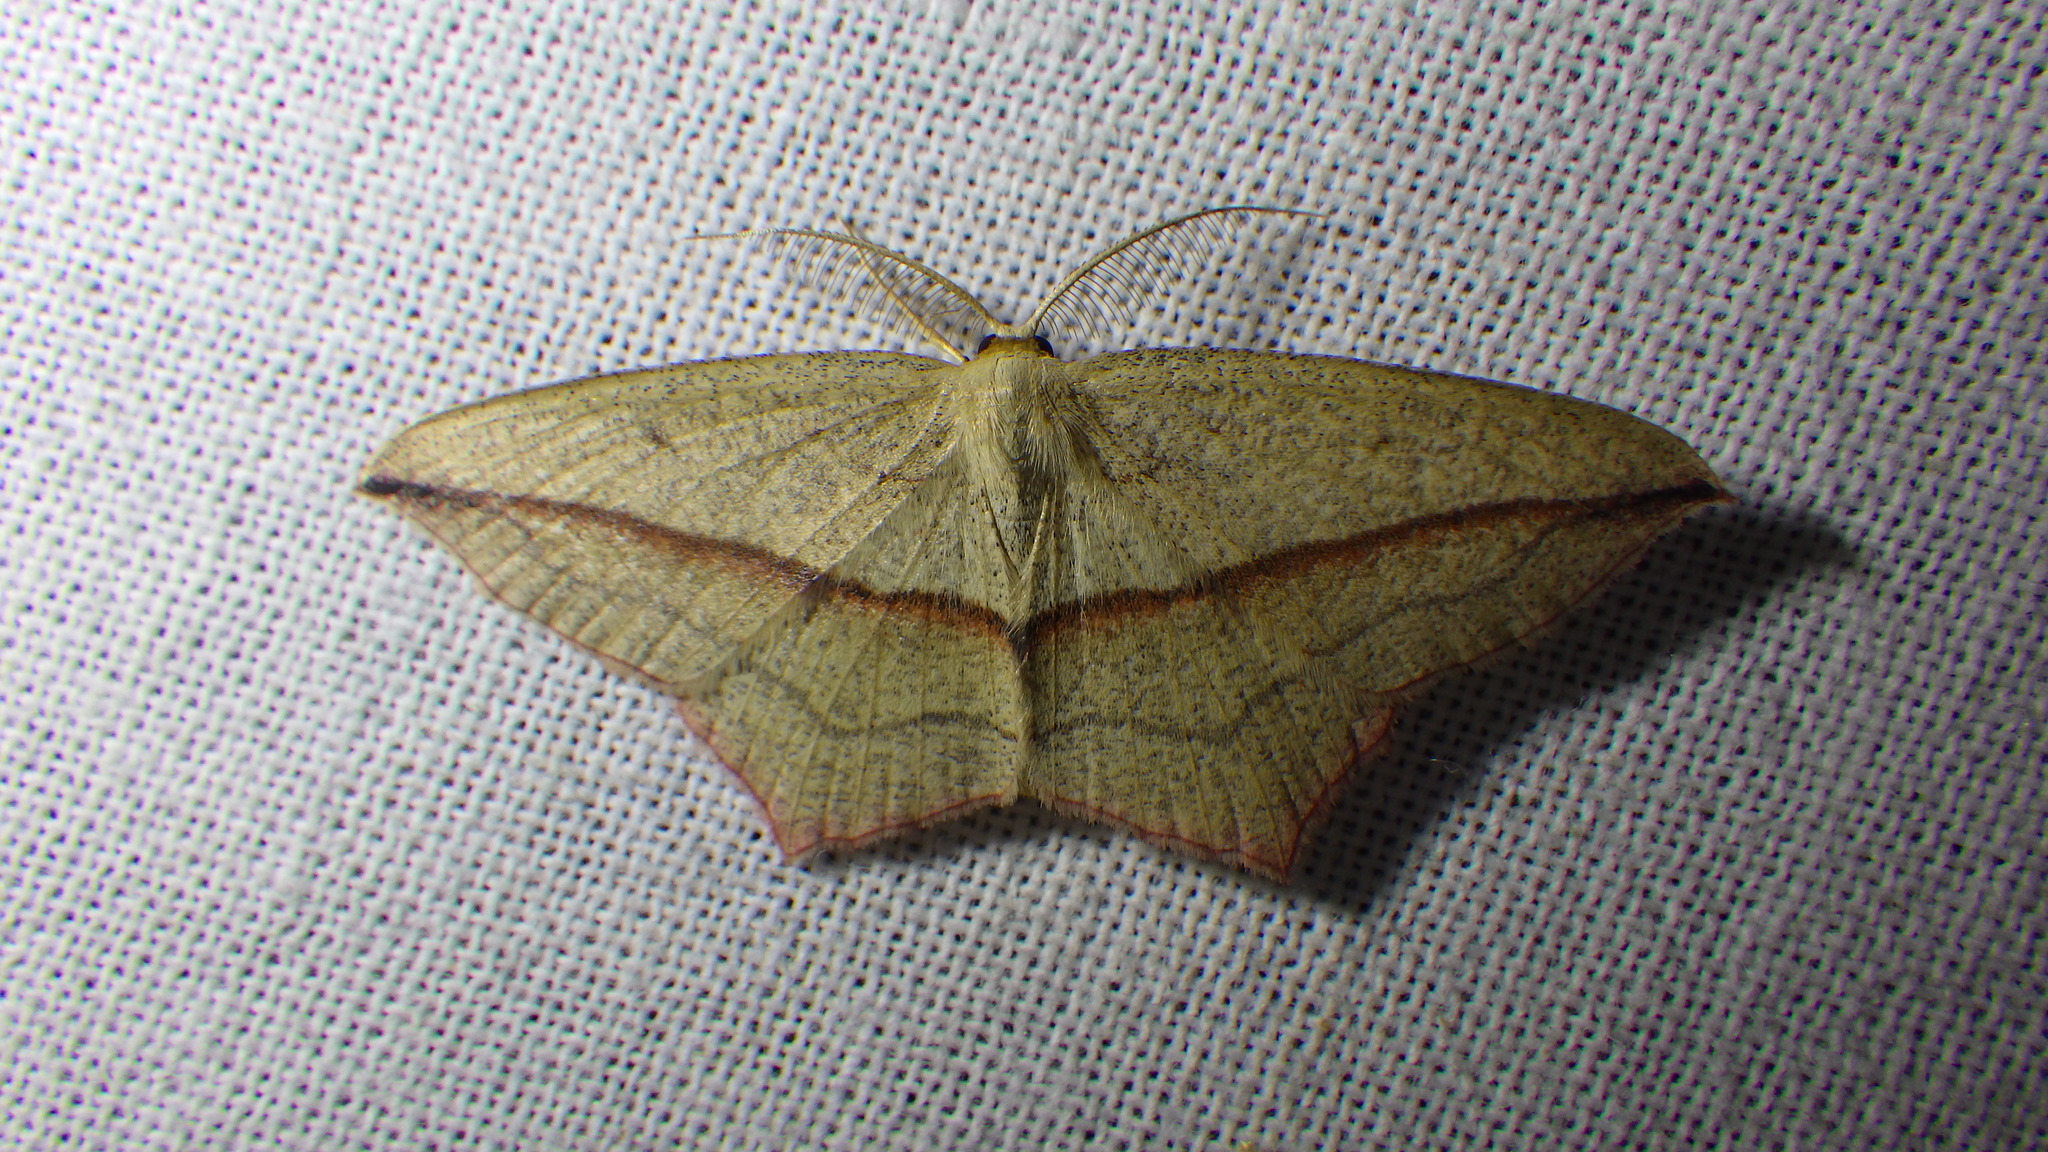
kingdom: Animalia
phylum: Arthropoda
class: Insecta
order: Lepidoptera
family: Geometridae
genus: Timandra
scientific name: Timandra comae
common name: Blood-vein
